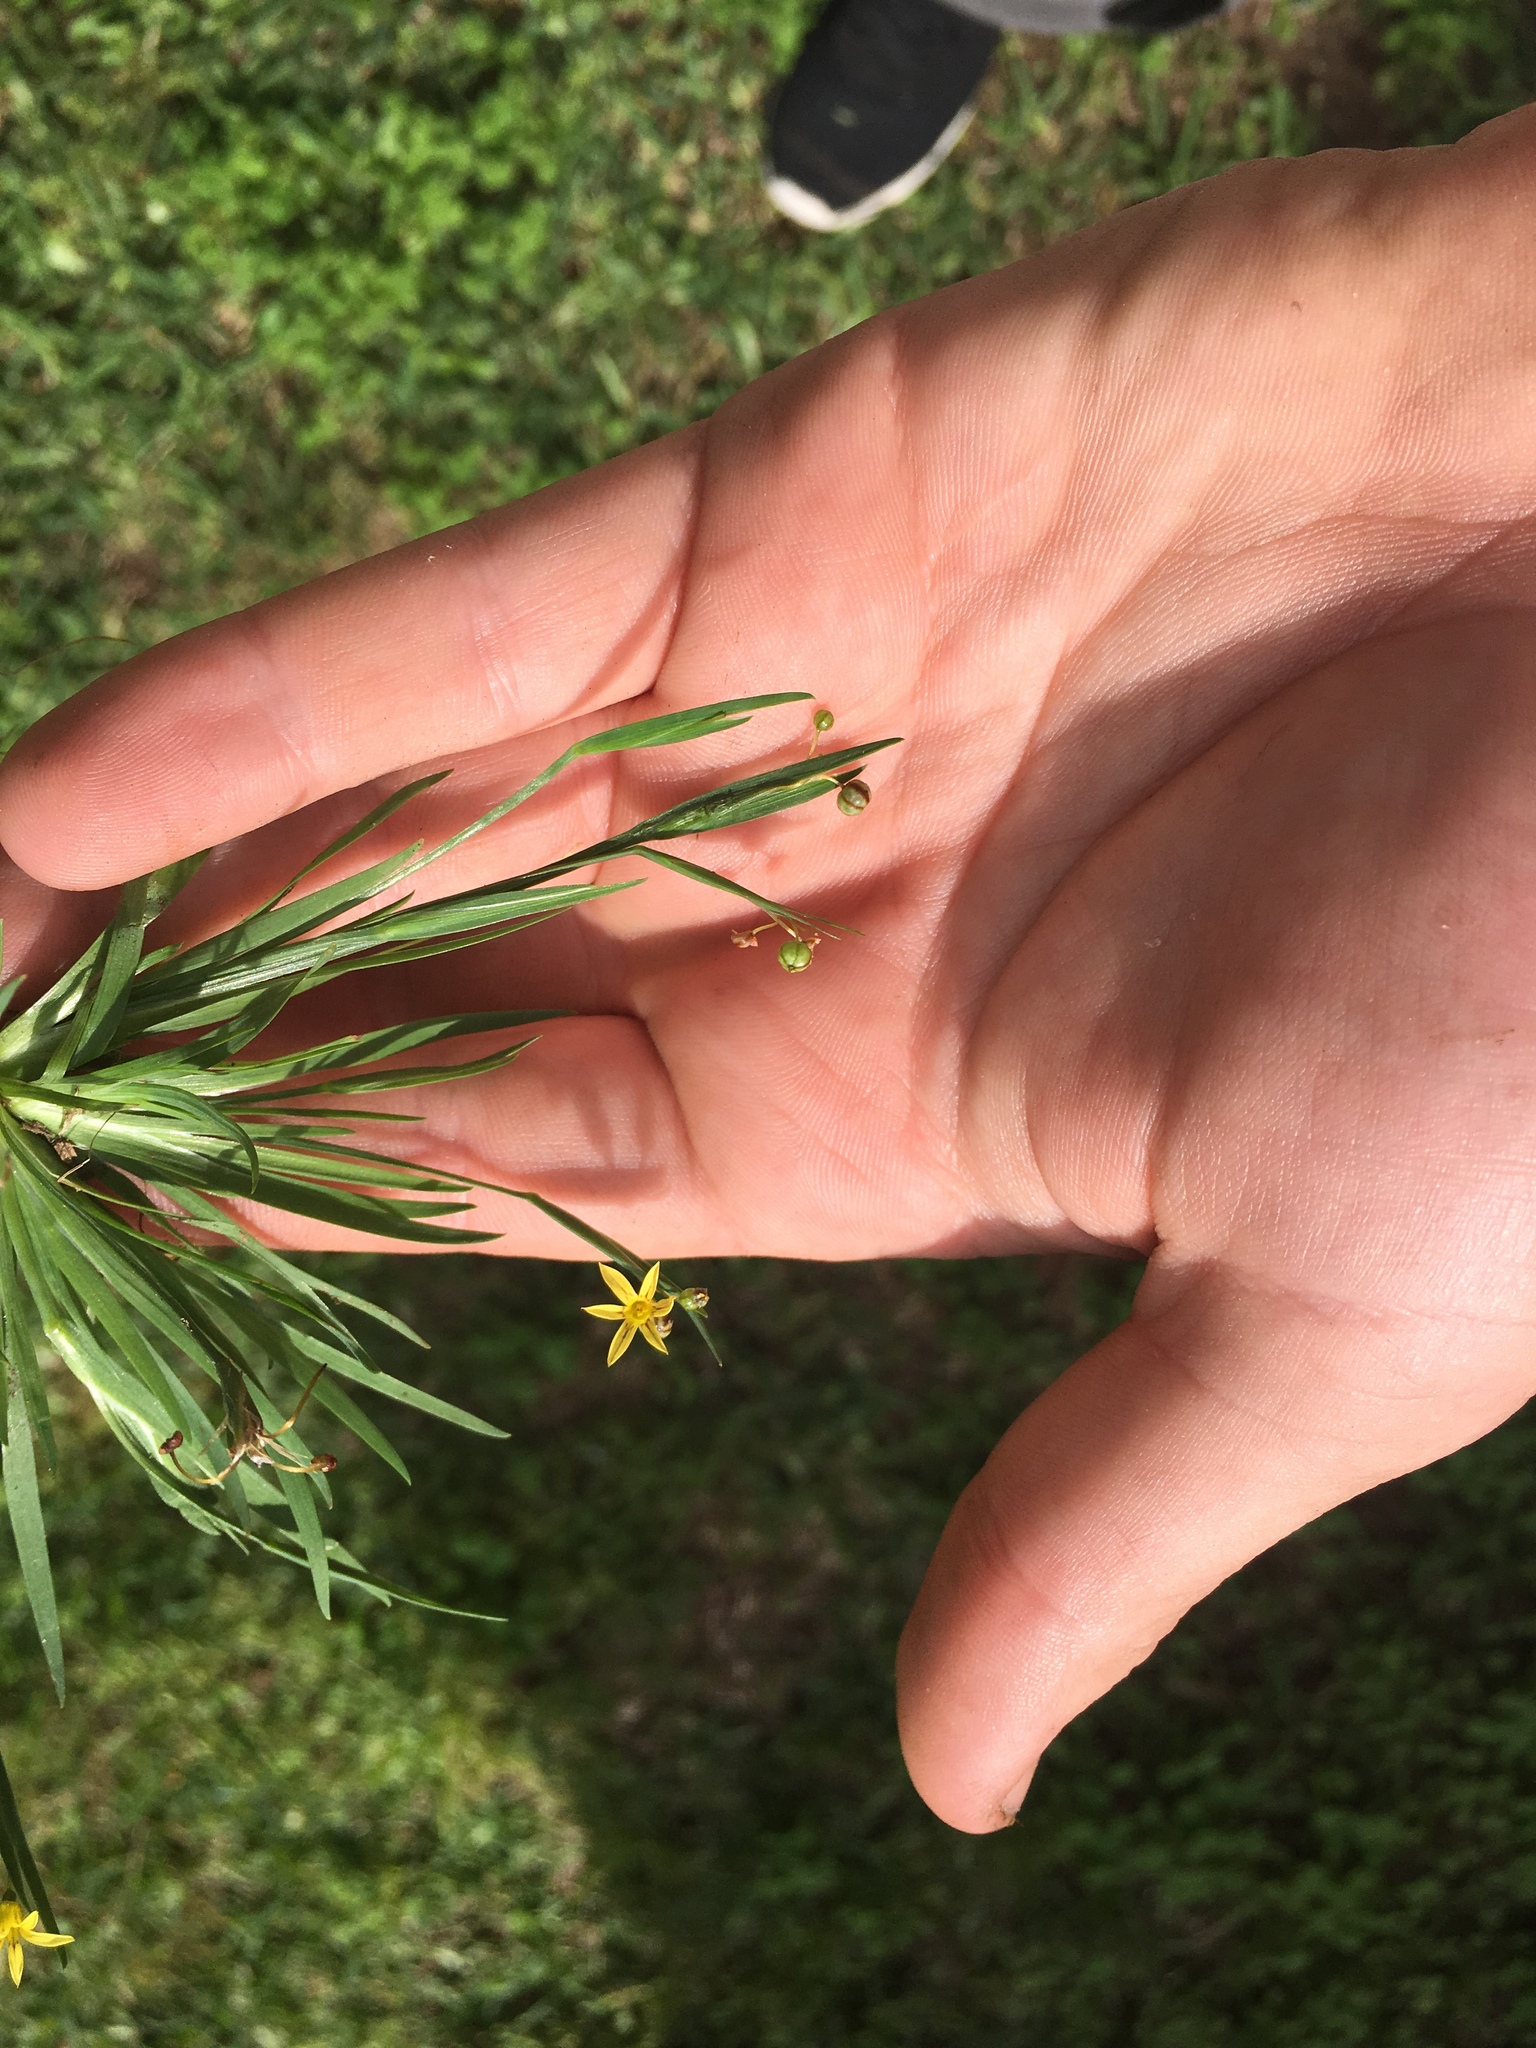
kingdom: Plantae
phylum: Tracheophyta
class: Liliopsida
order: Asparagales
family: Iridaceae
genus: Sisyrinchium
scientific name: Sisyrinchium micranthum
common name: Bermuda pigroot
